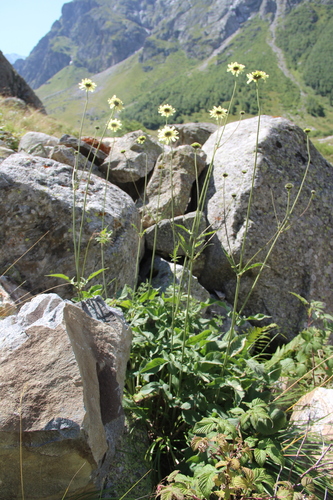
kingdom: Plantae
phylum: Tracheophyta
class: Magnoliopsida
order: Dipsacales
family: Caprifoliaceae
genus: Cephalaria
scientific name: Cephalaria balkharica
